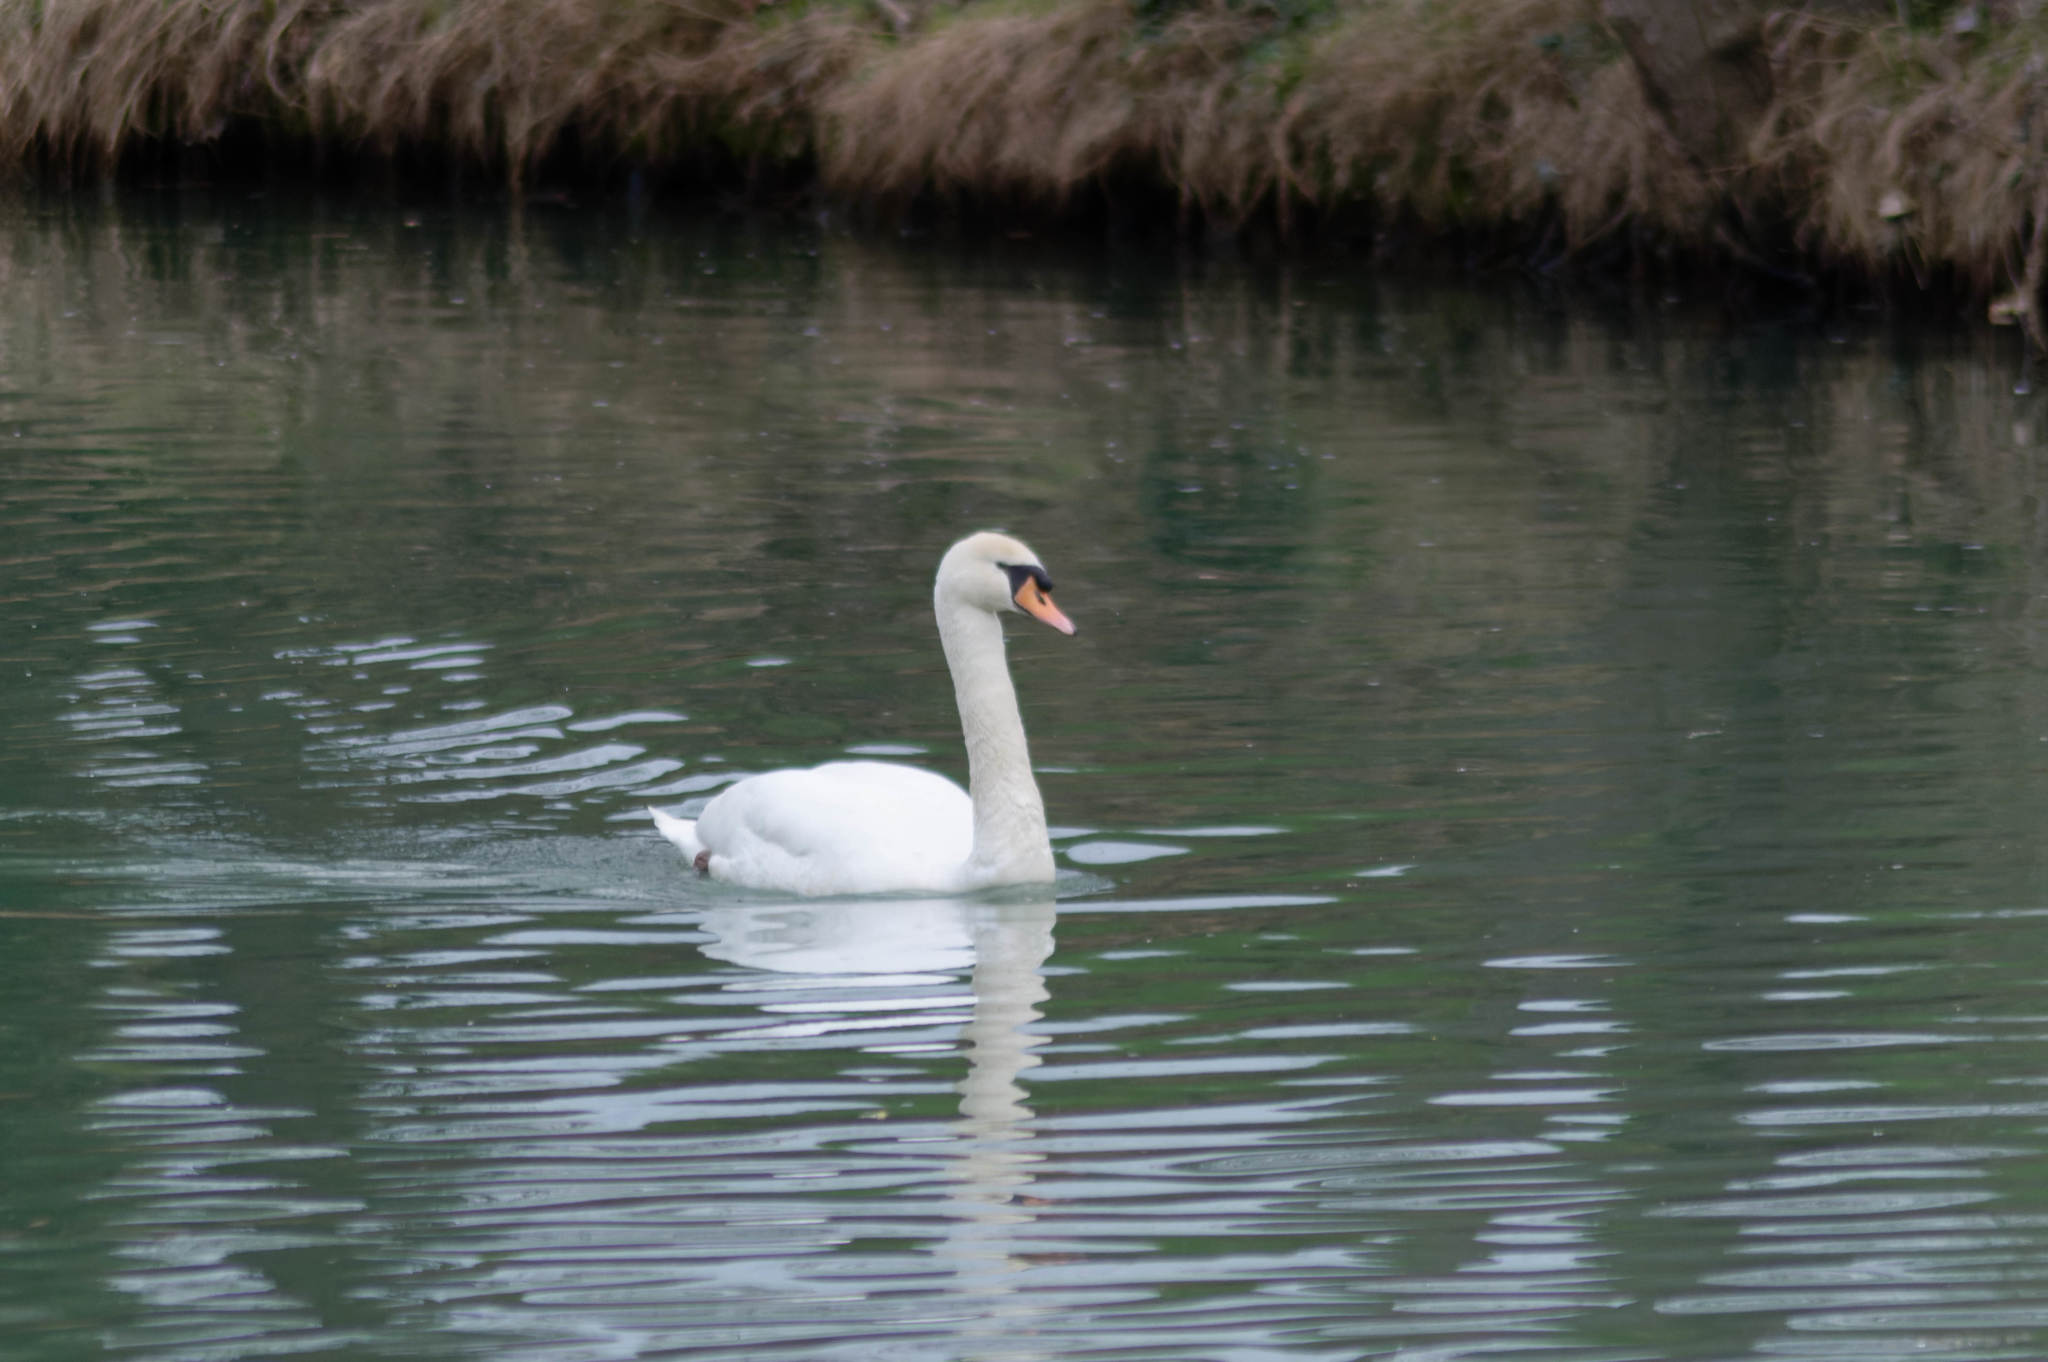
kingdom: Animalia
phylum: Chordata
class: Aves
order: Anseriformes
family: Anatidae
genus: Cygnus
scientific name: Cygnus olor
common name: Mute swan
